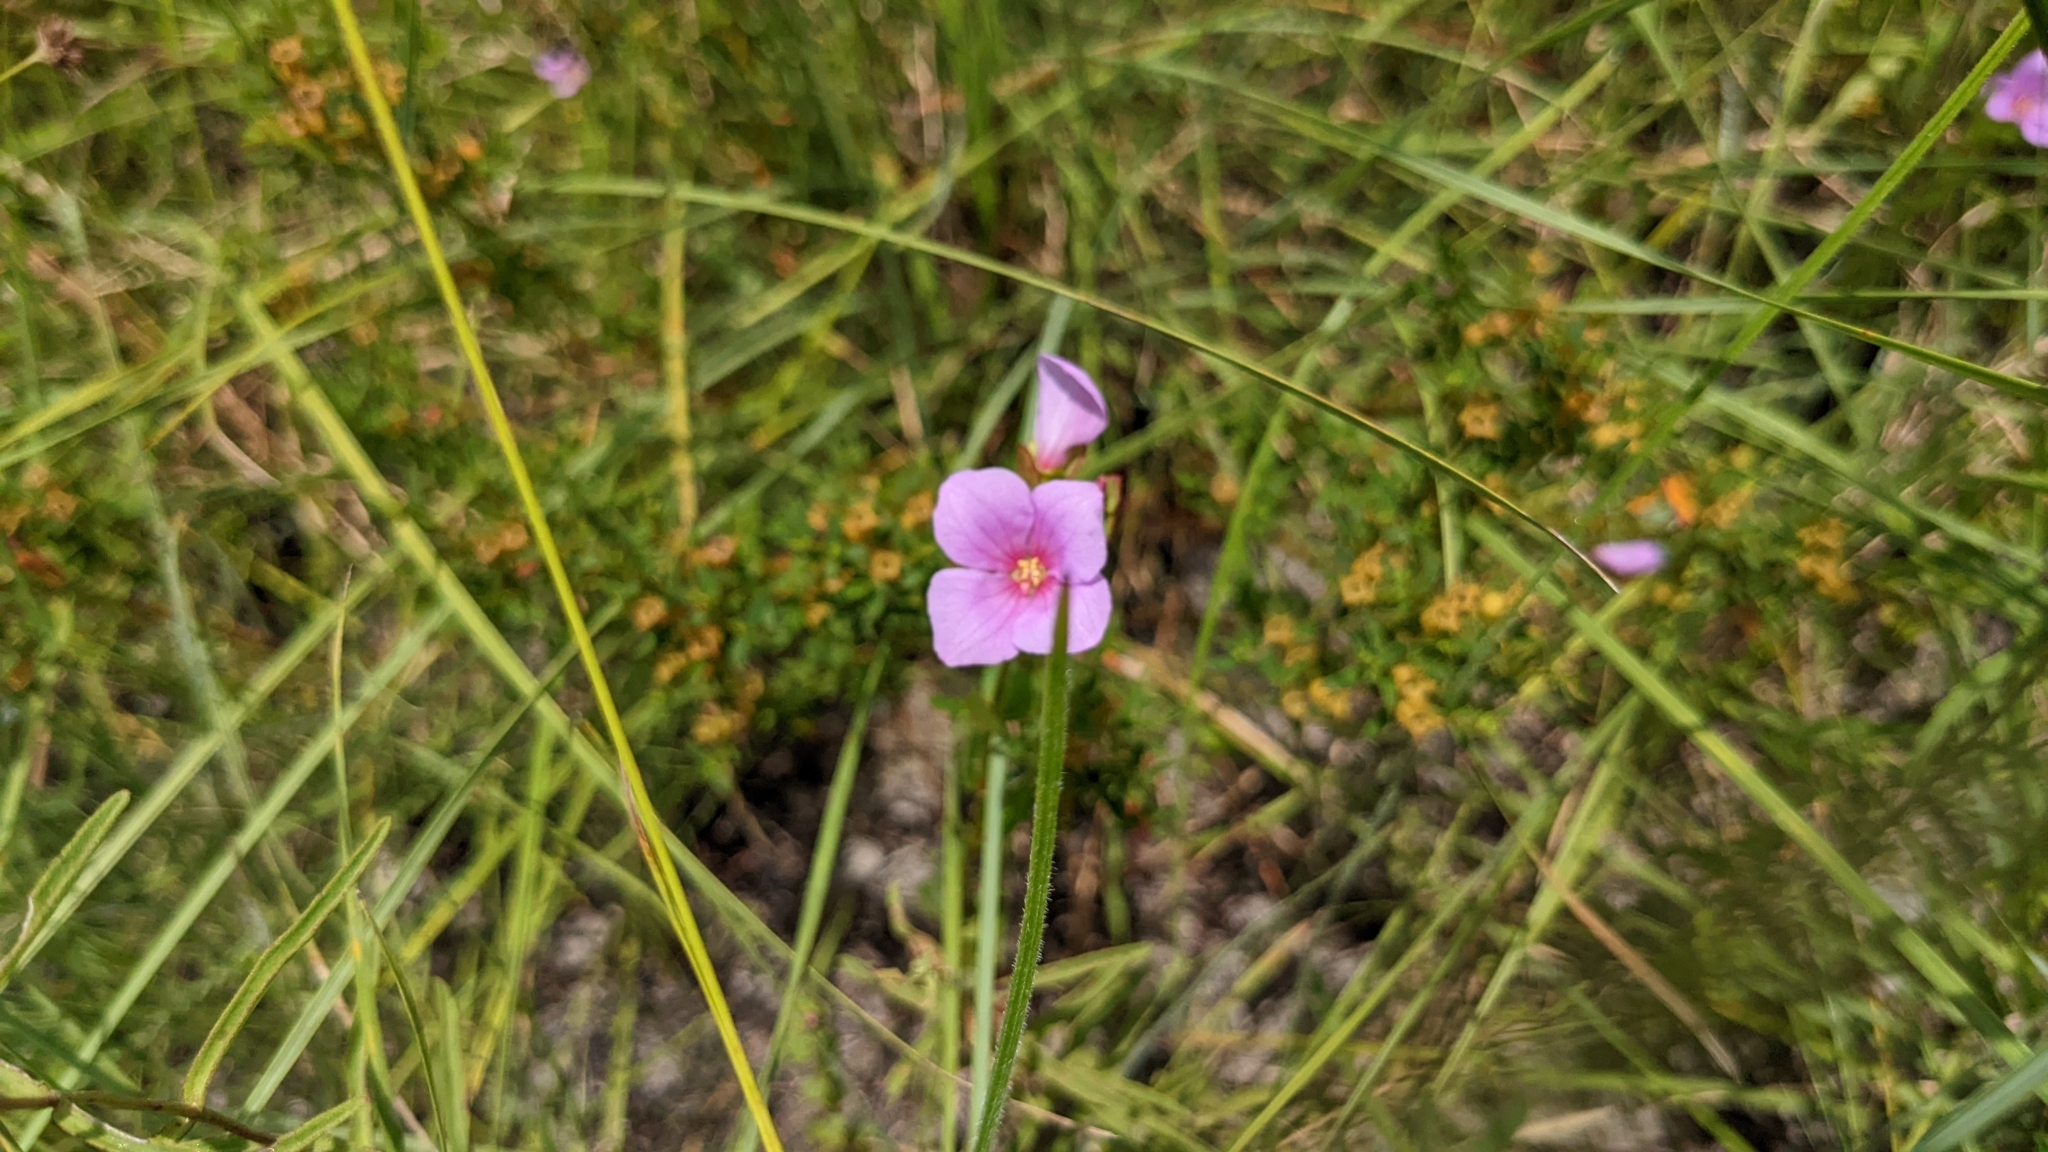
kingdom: Plantae
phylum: Tracheophyta
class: Magnoliopsida
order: Myrtales
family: Melastomataceae
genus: Rhexia
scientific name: Rhexia petiolata
